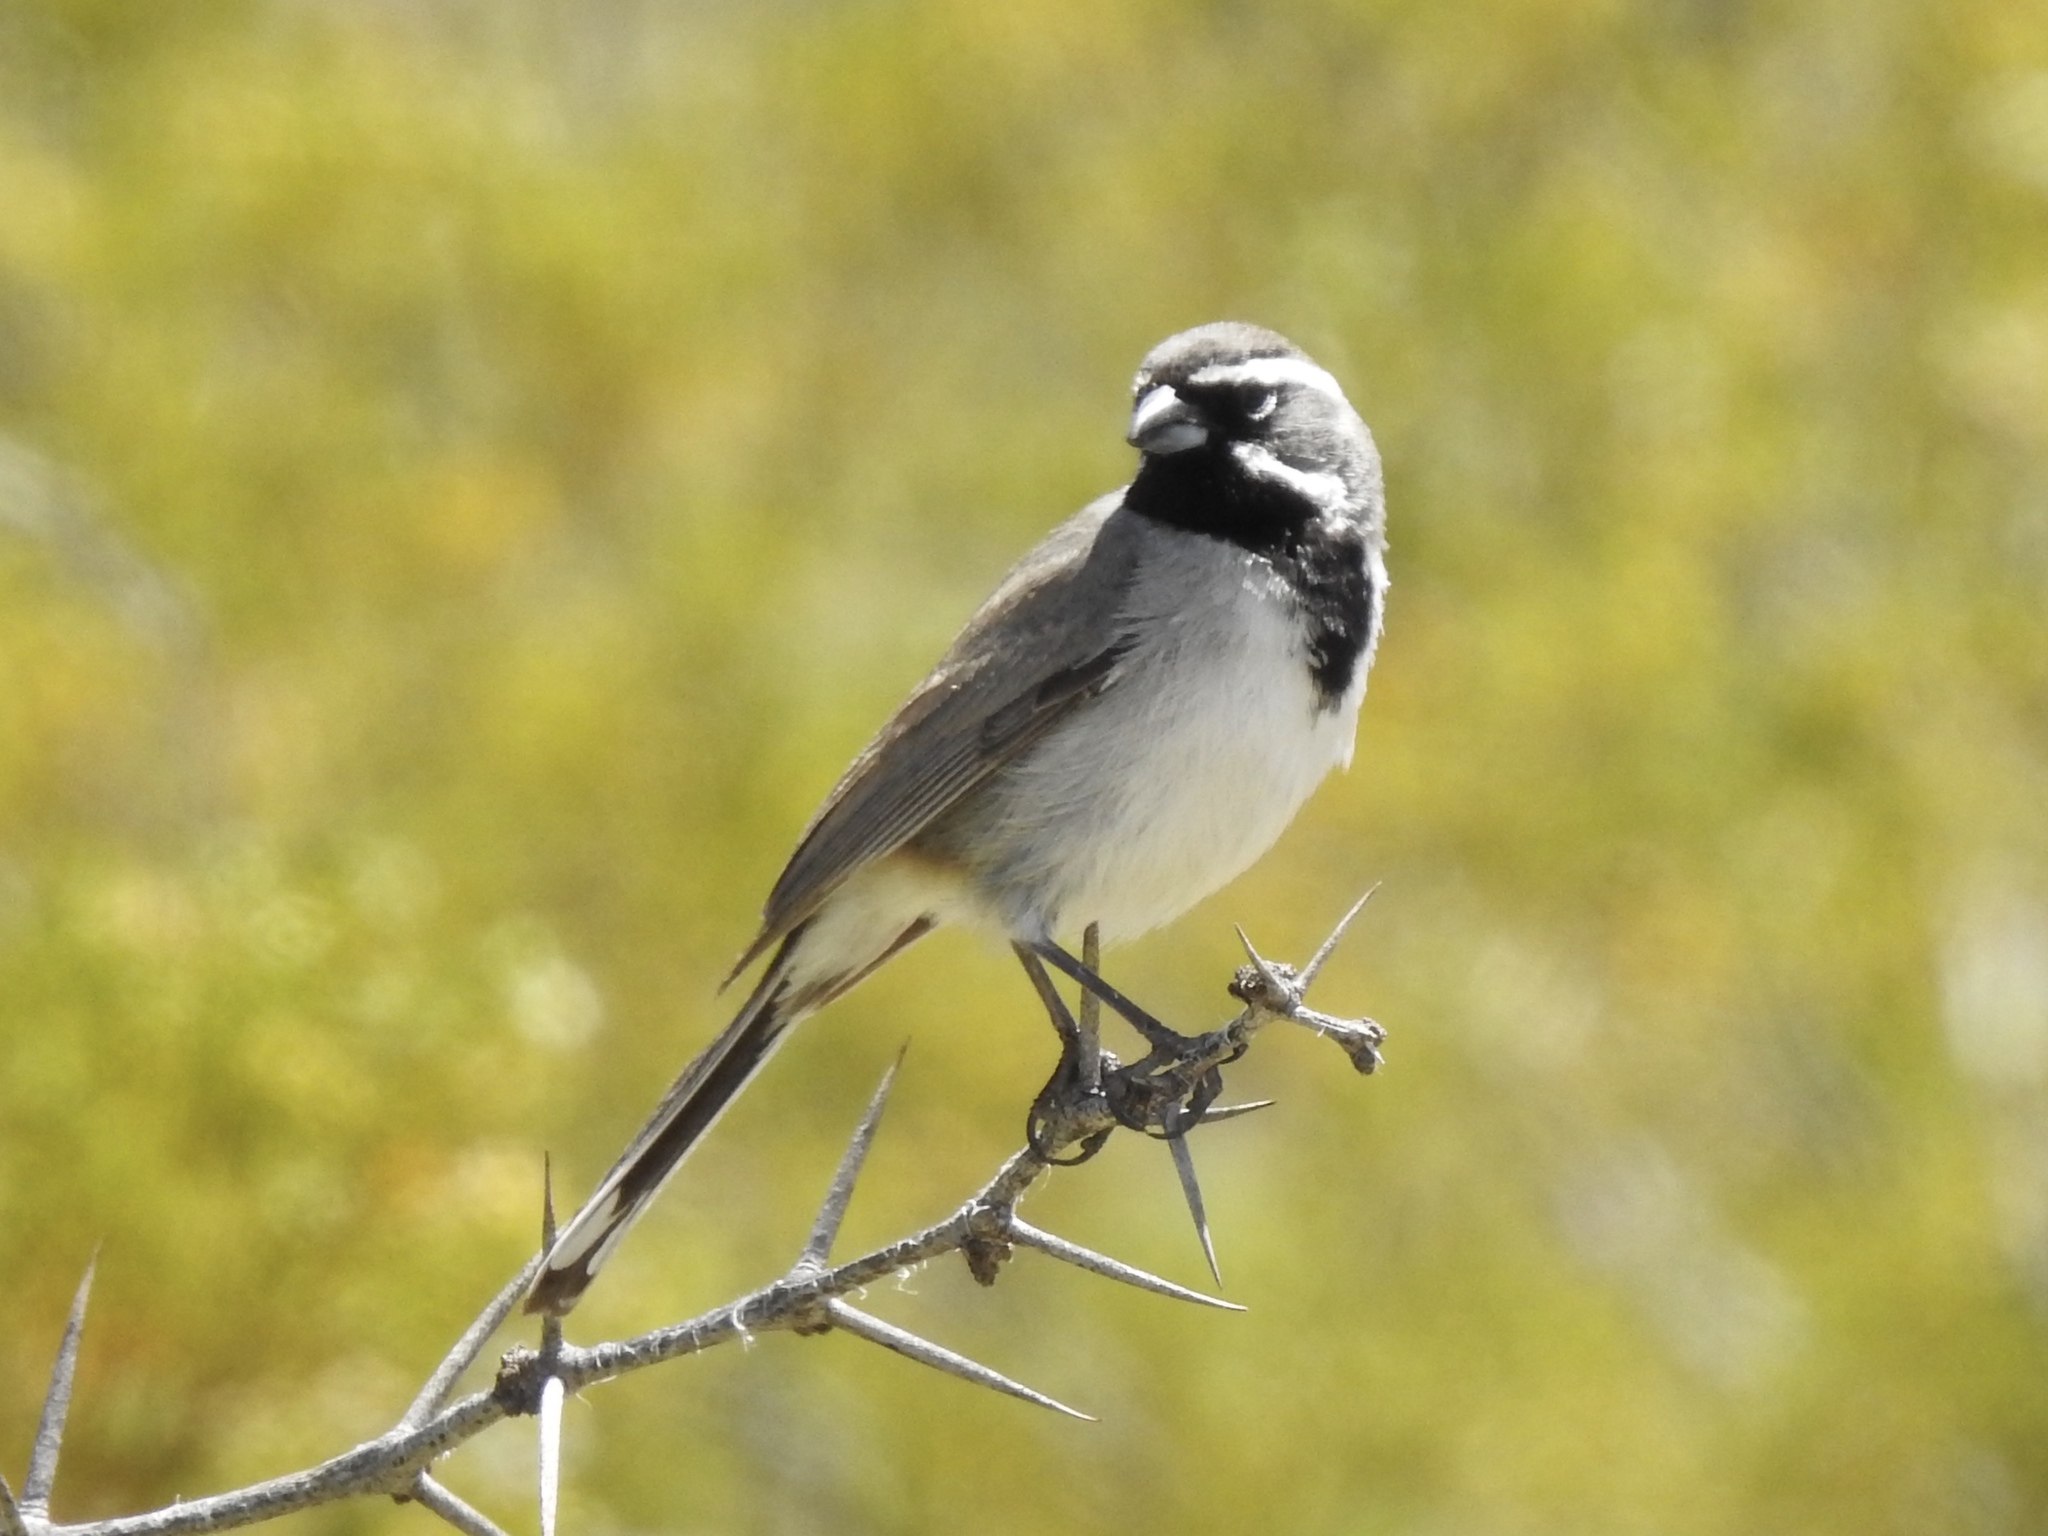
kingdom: Animalia
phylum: Chordata
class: Aves
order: Passeriformes
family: Passerellidae
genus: Amphispiza
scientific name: Amphispiza bilineata
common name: Black-throated sparrow
